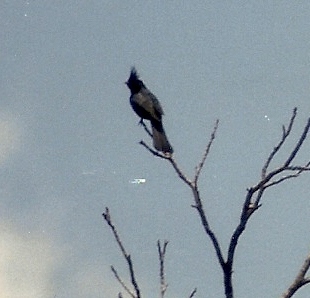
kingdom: Animalia
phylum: Chordata
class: Aves
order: Passeriformes
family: Ptilogonatidae
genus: Phainopepla
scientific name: Phainopepla nitens
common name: Phainopepla
